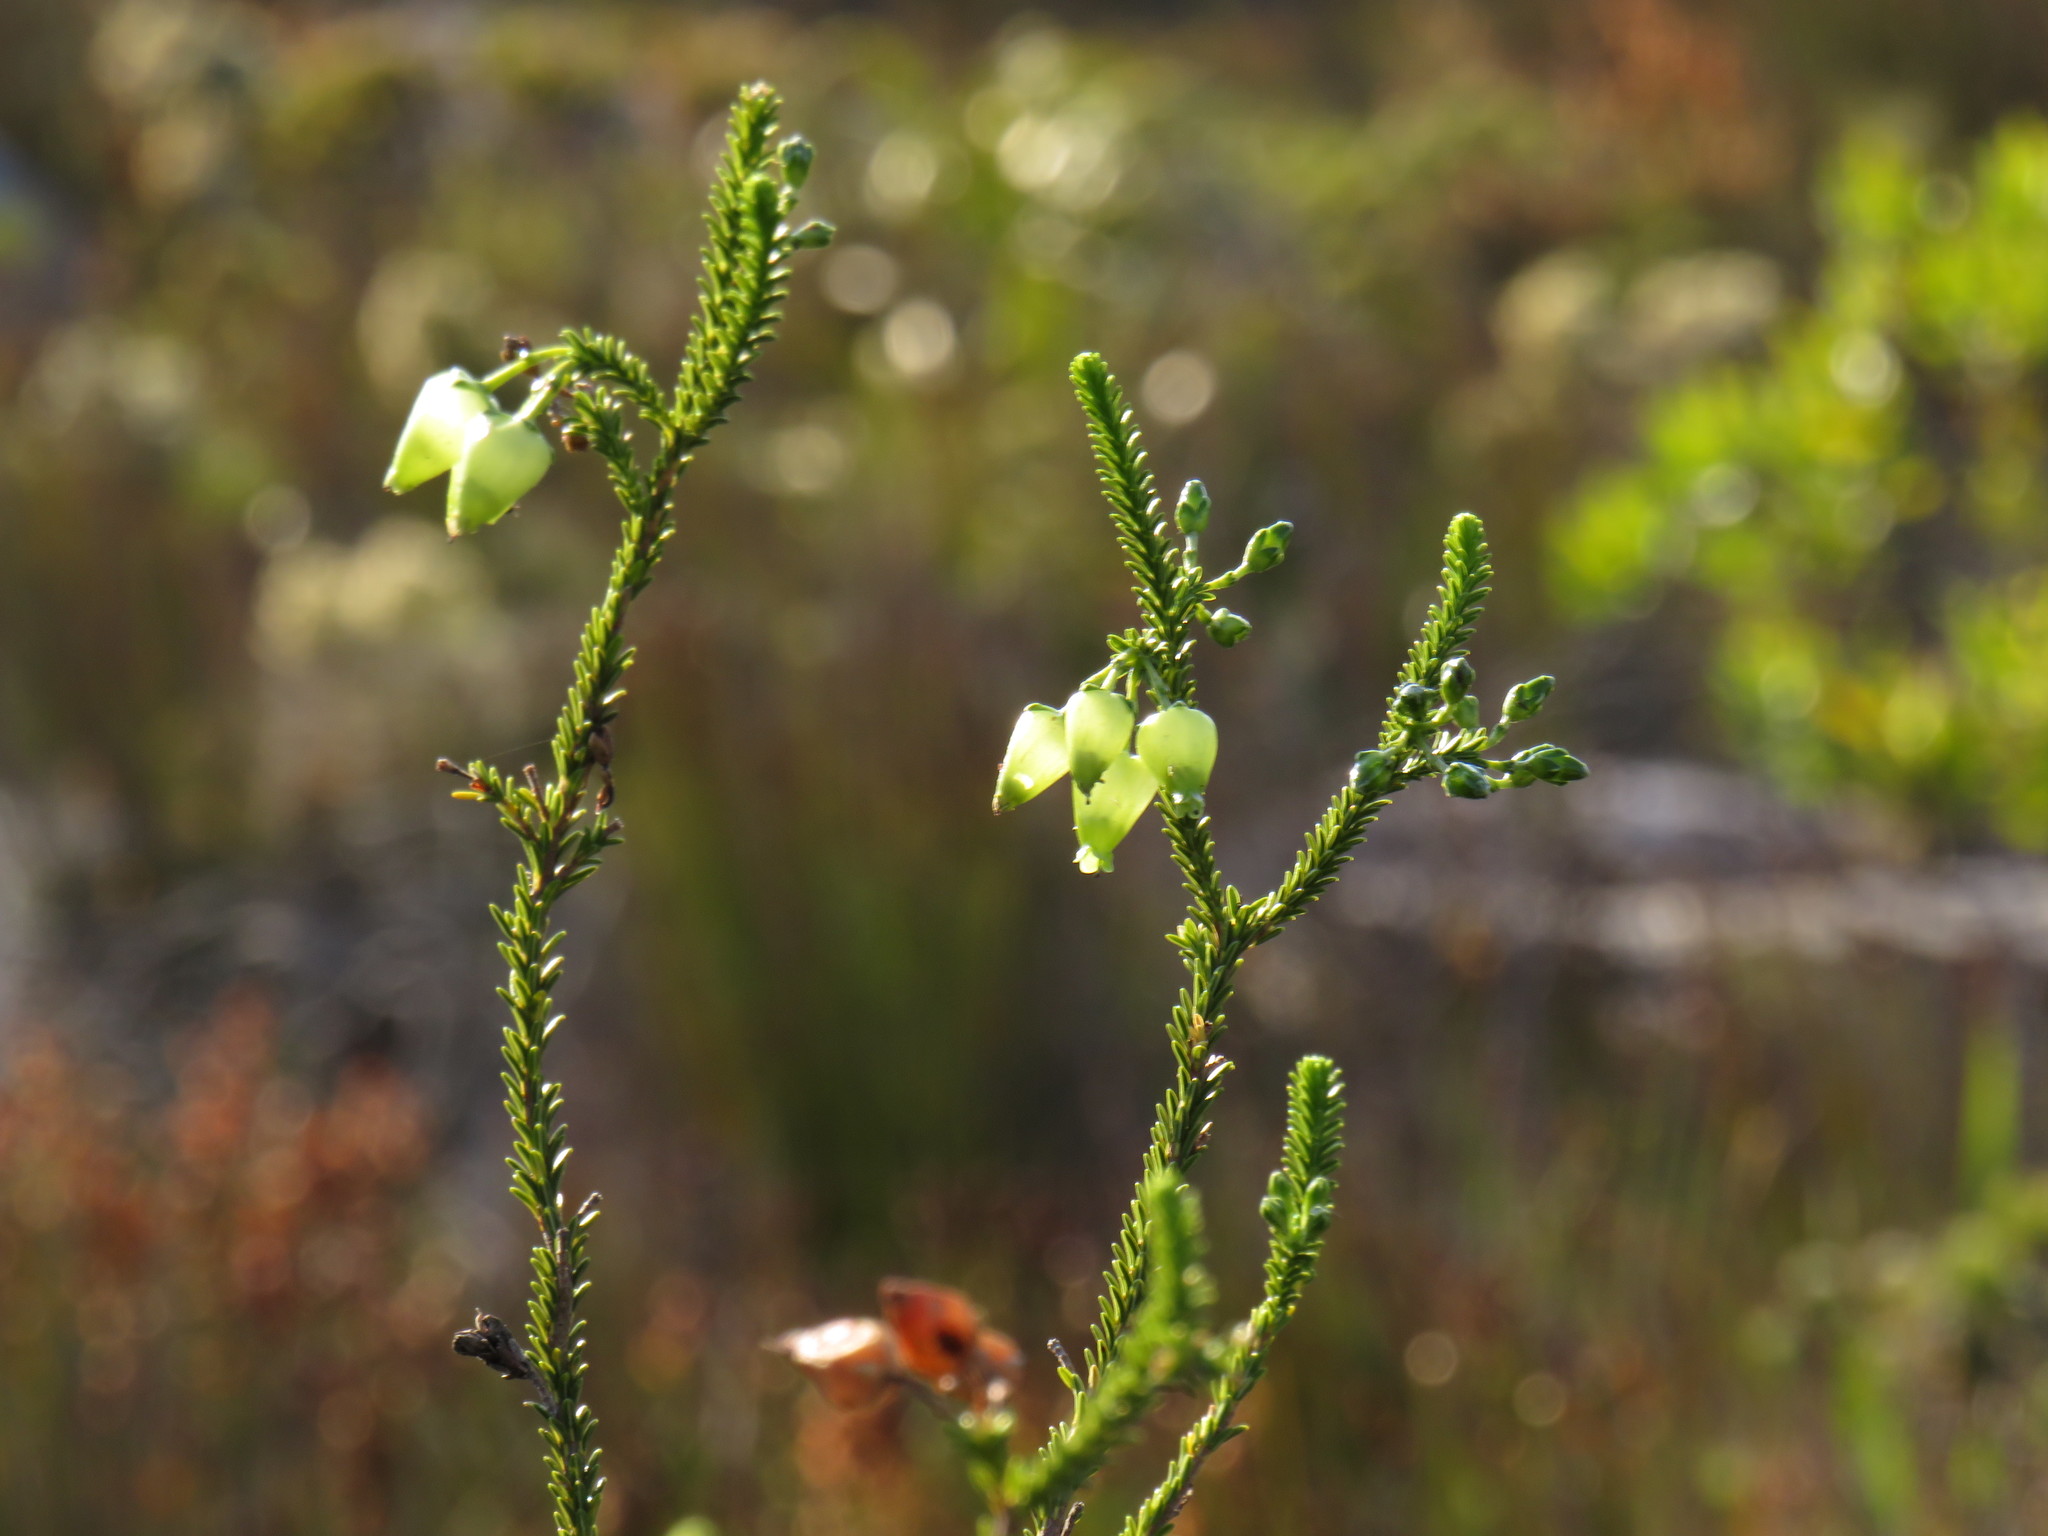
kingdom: Plantae
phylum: Tracheophyta
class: Magnoliopsida
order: Ericales
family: Ericaceae
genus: Erica
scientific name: Erica urna-viridis
